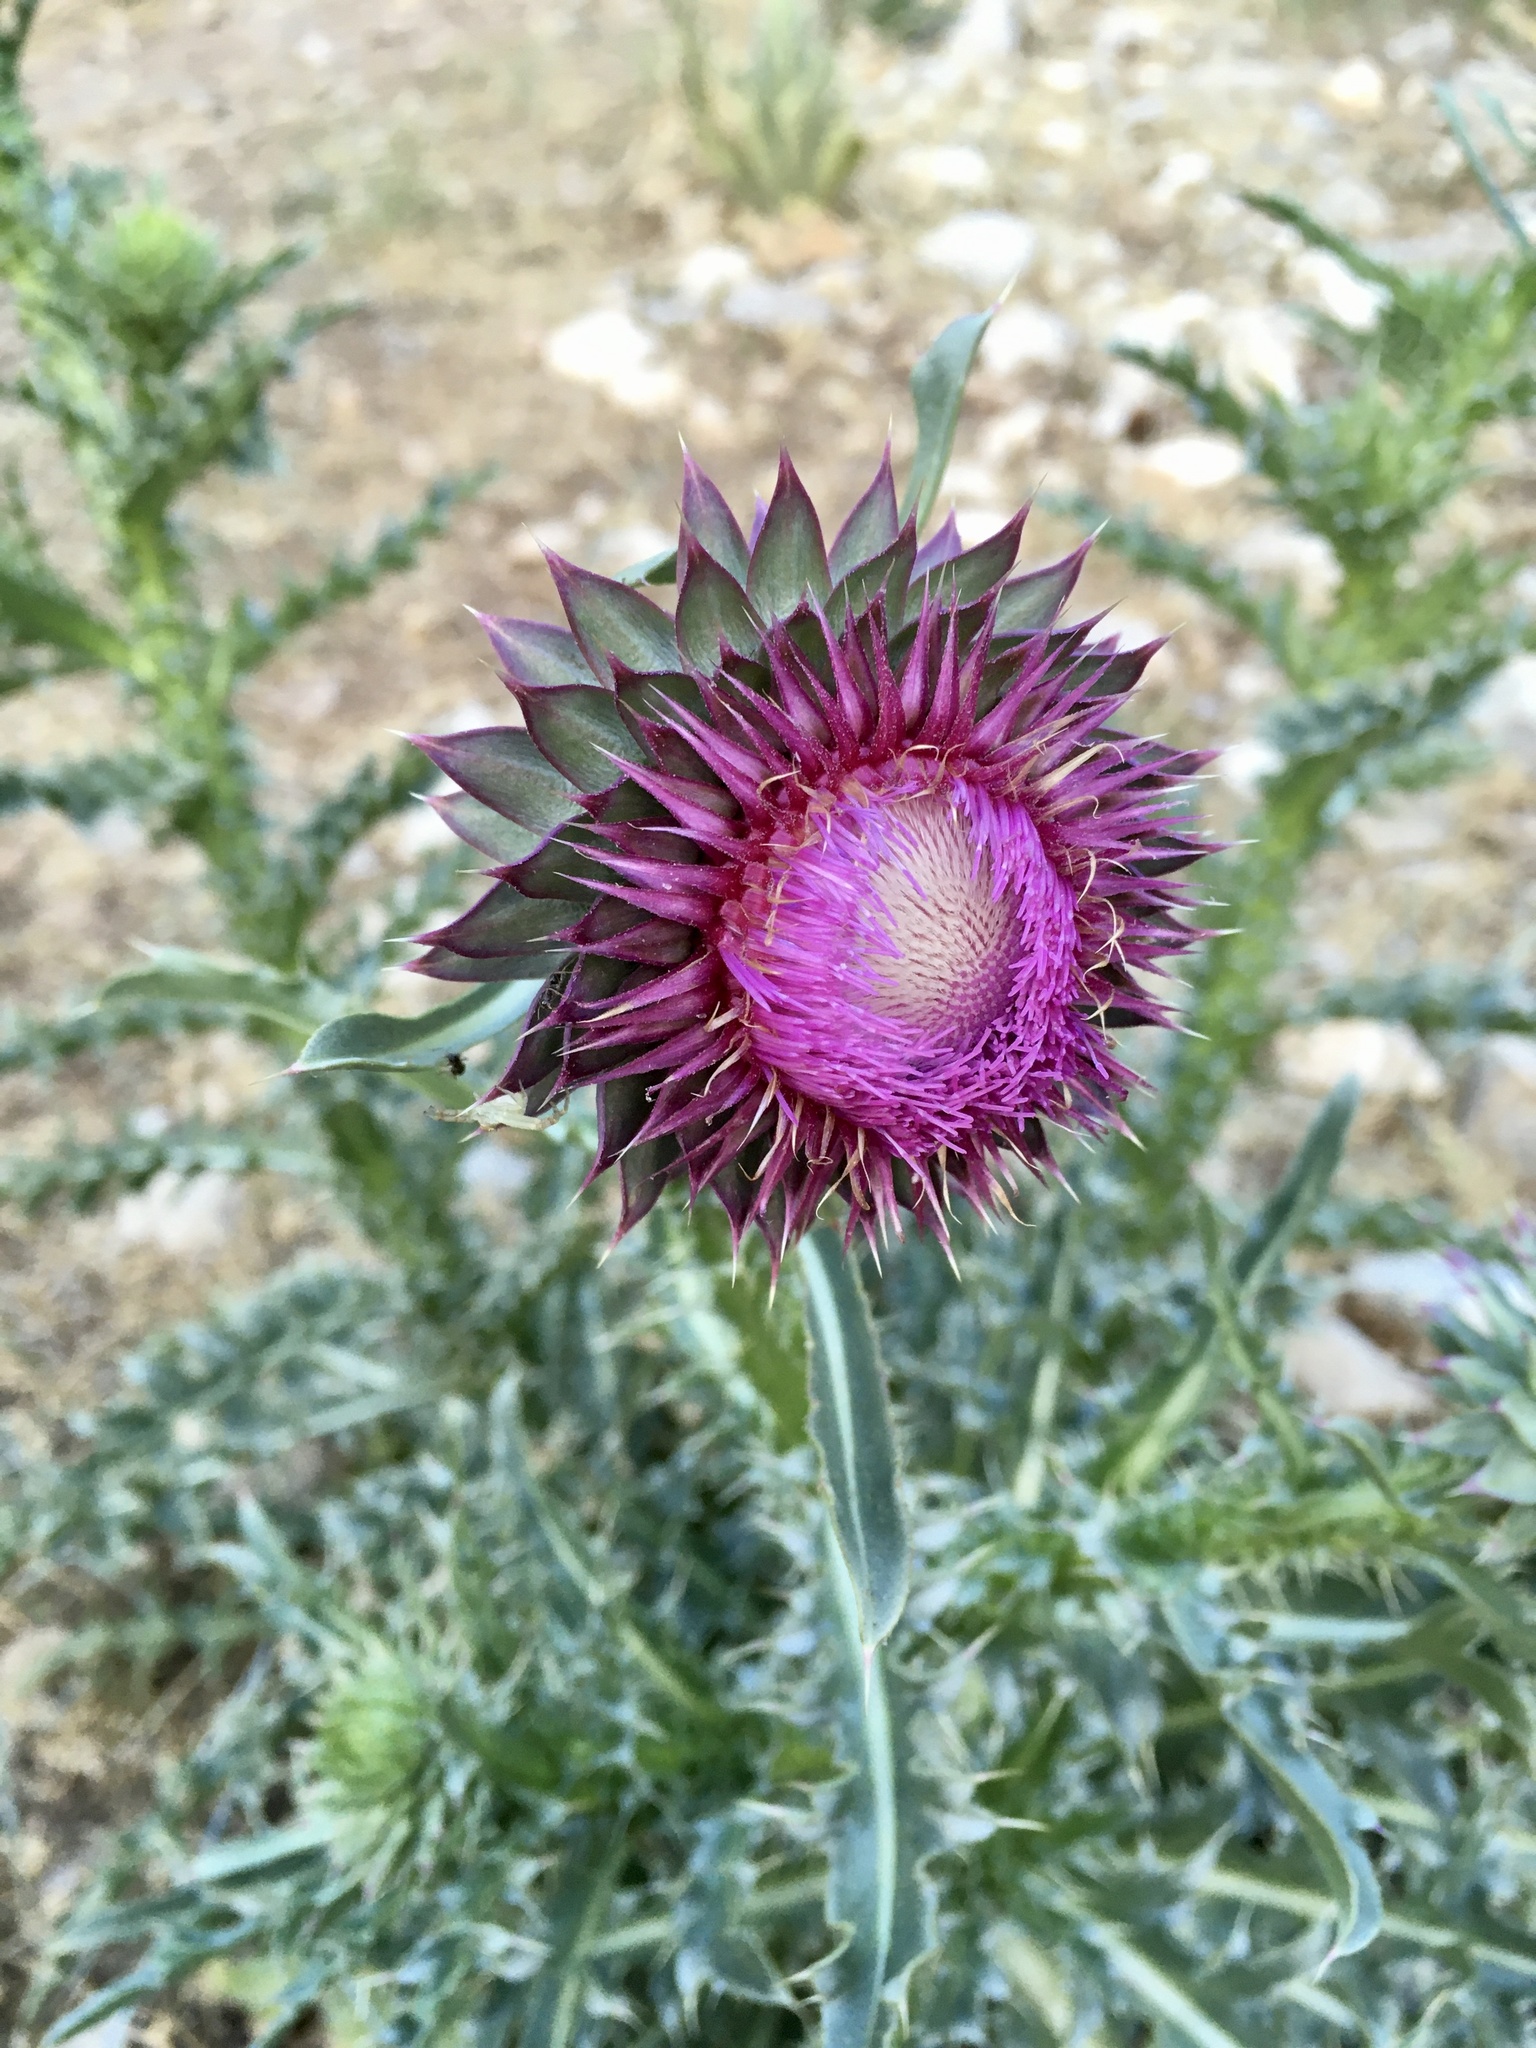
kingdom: Plantae
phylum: Tracheophyta
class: Magnoliopsida
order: Asterales
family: Asteraceae
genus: Carduus
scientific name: Carduus nutans
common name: Musk thistle
